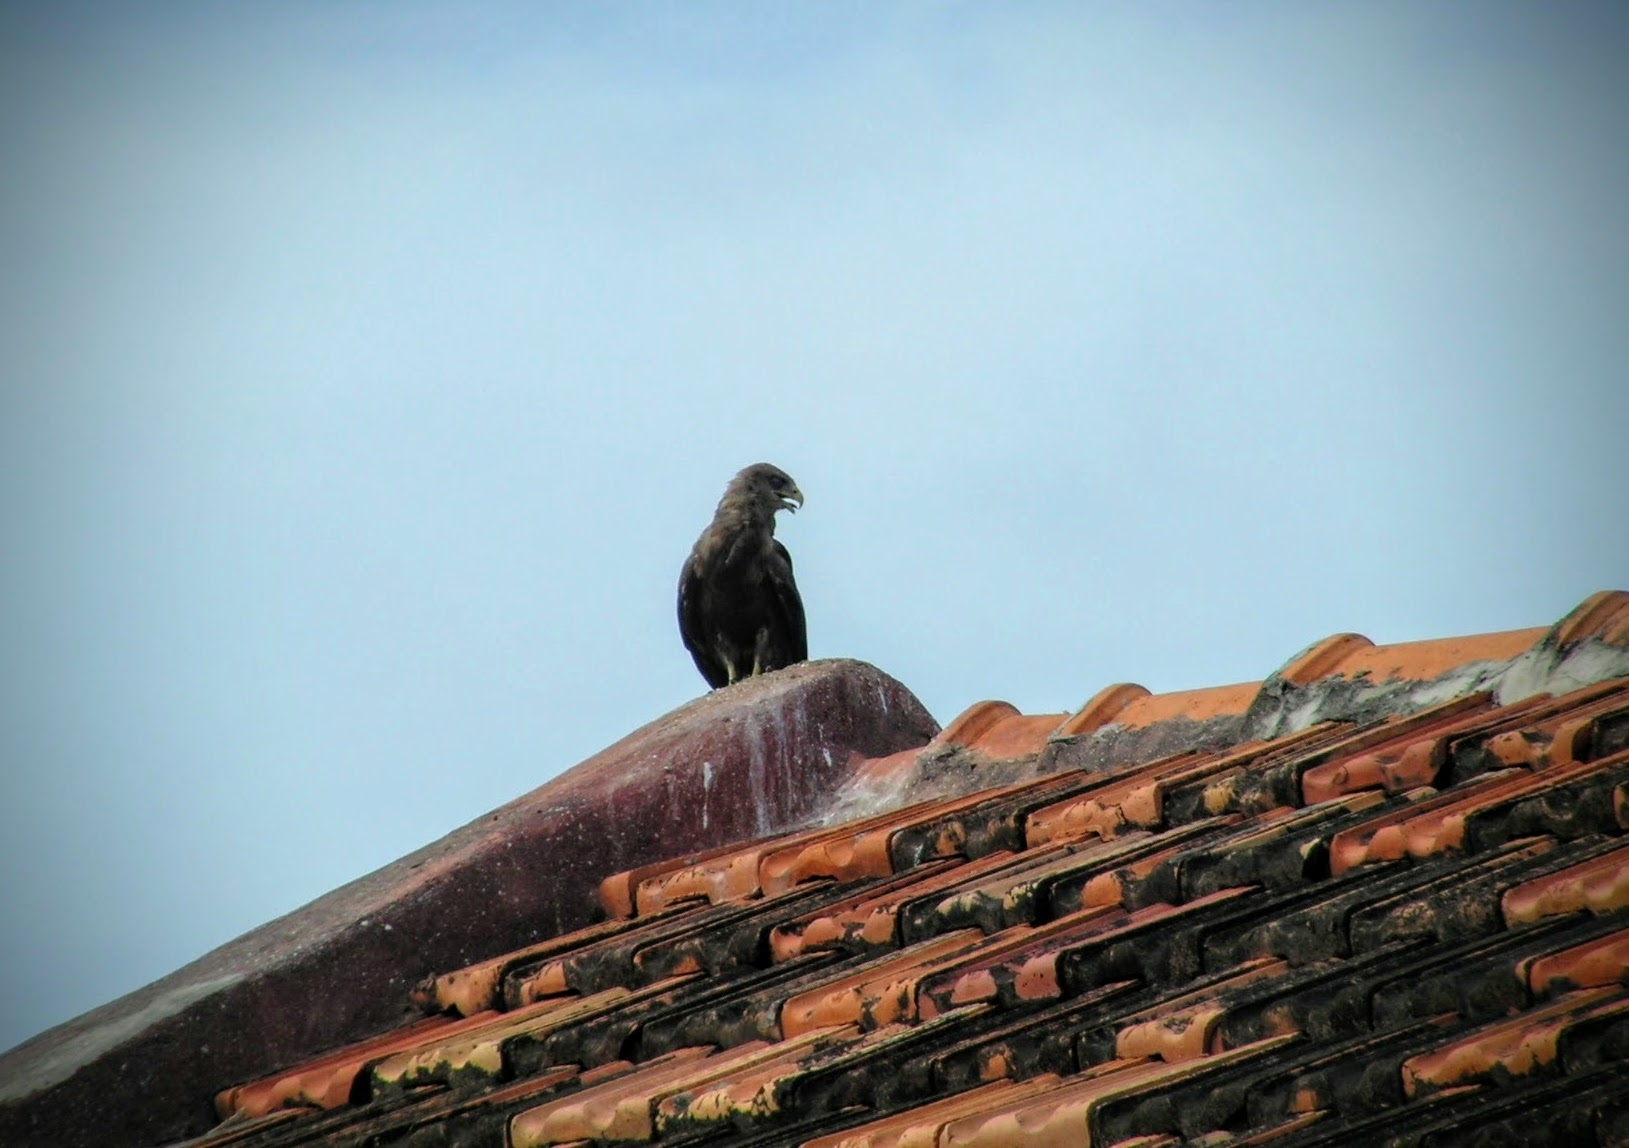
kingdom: Animalia
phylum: Chordata
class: Aves
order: Accipitriformes
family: Accipitridae
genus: Milvus
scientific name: Milvus migrans
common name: Black kite
